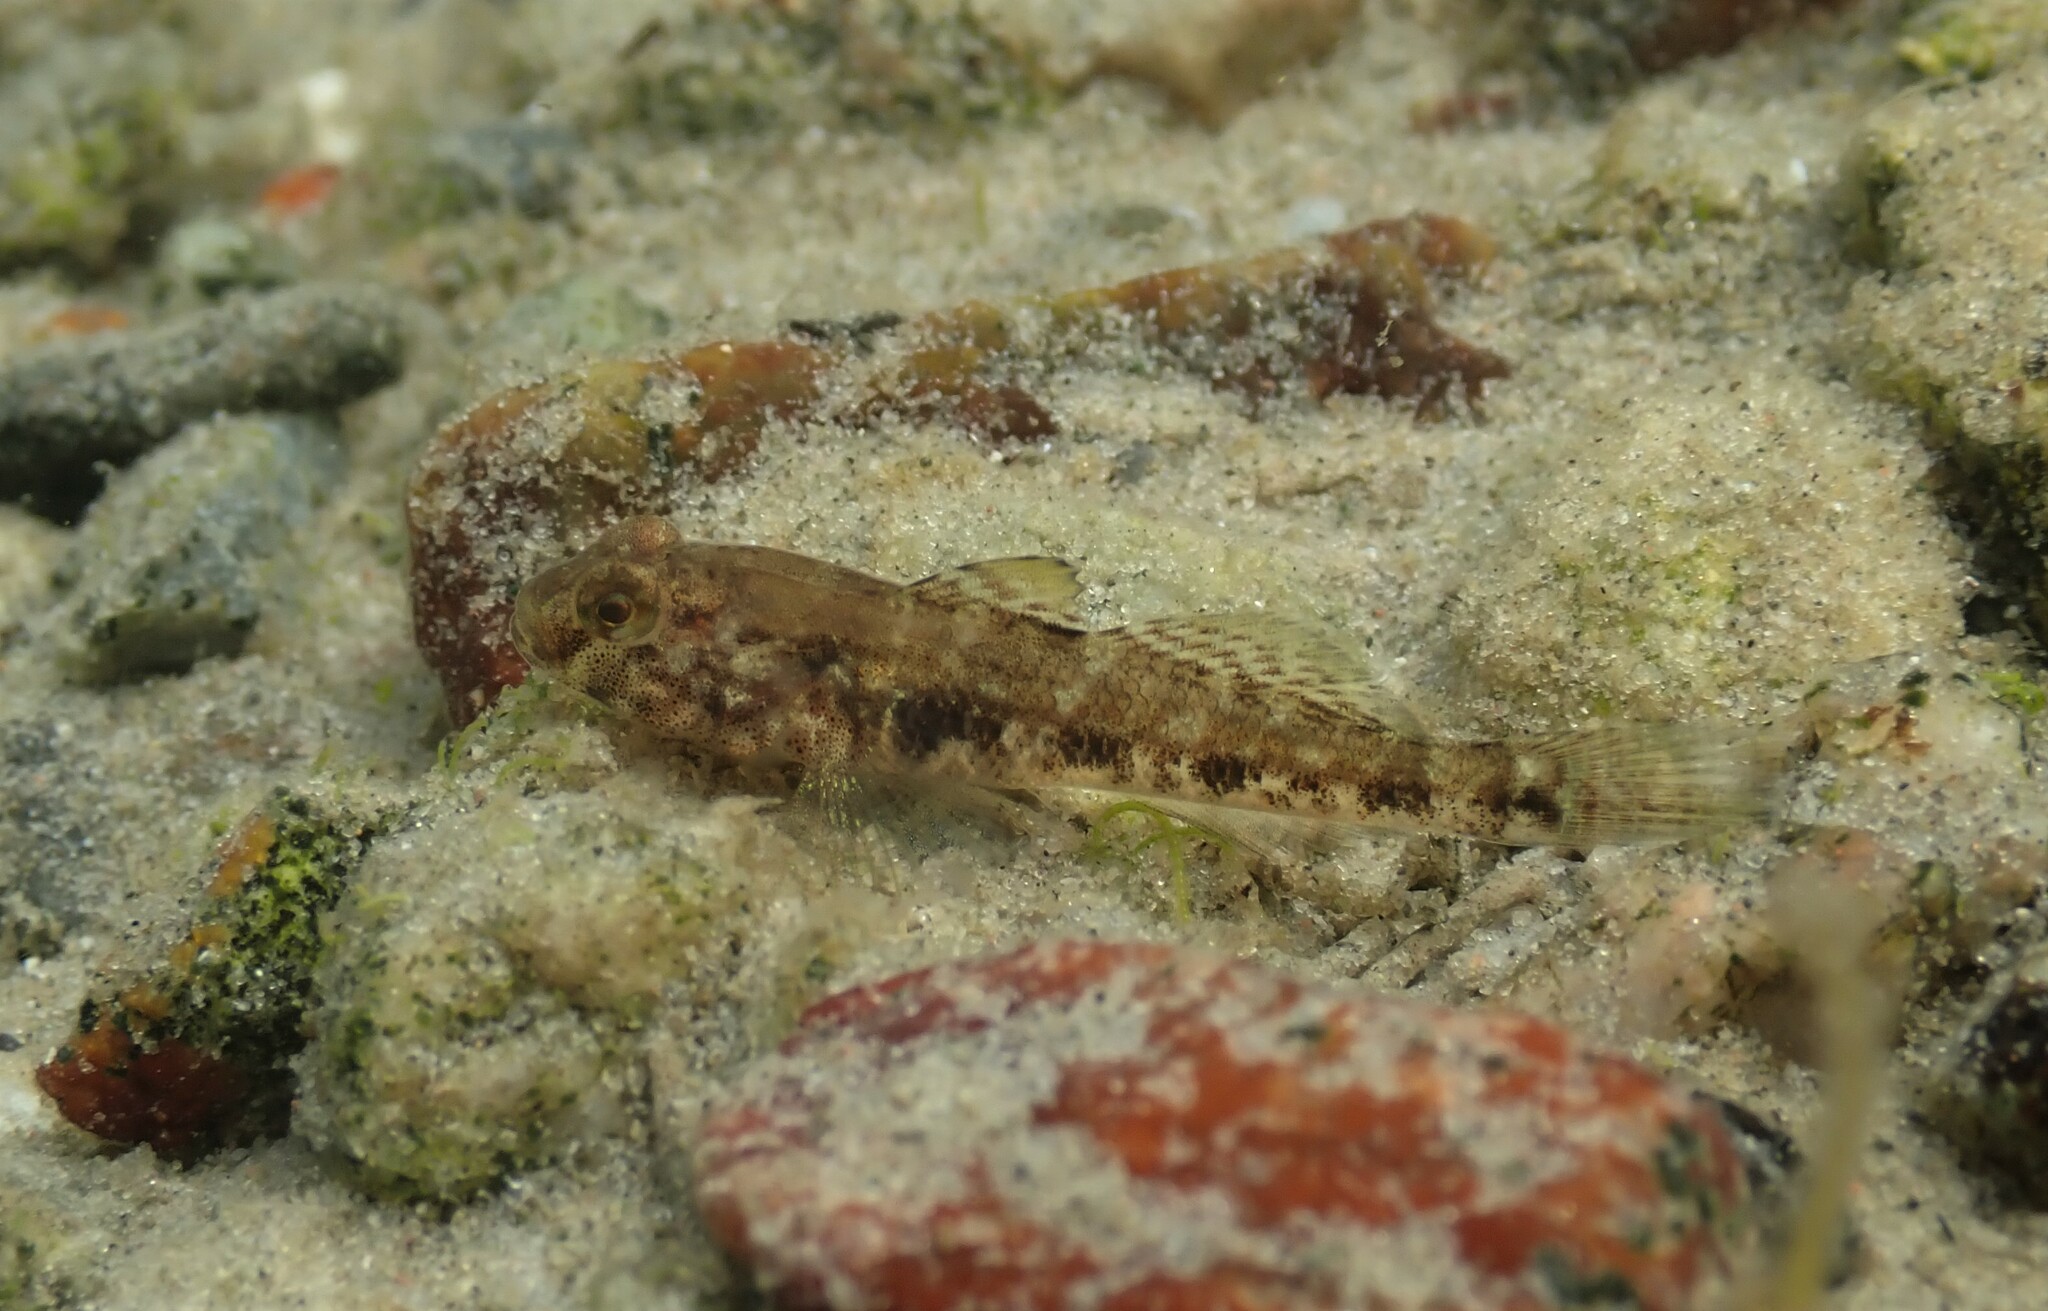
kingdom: Animalia
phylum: Chordata
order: Perciformes
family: Gobiidae
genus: Gobius
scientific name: Gobius niger
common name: Black goby
